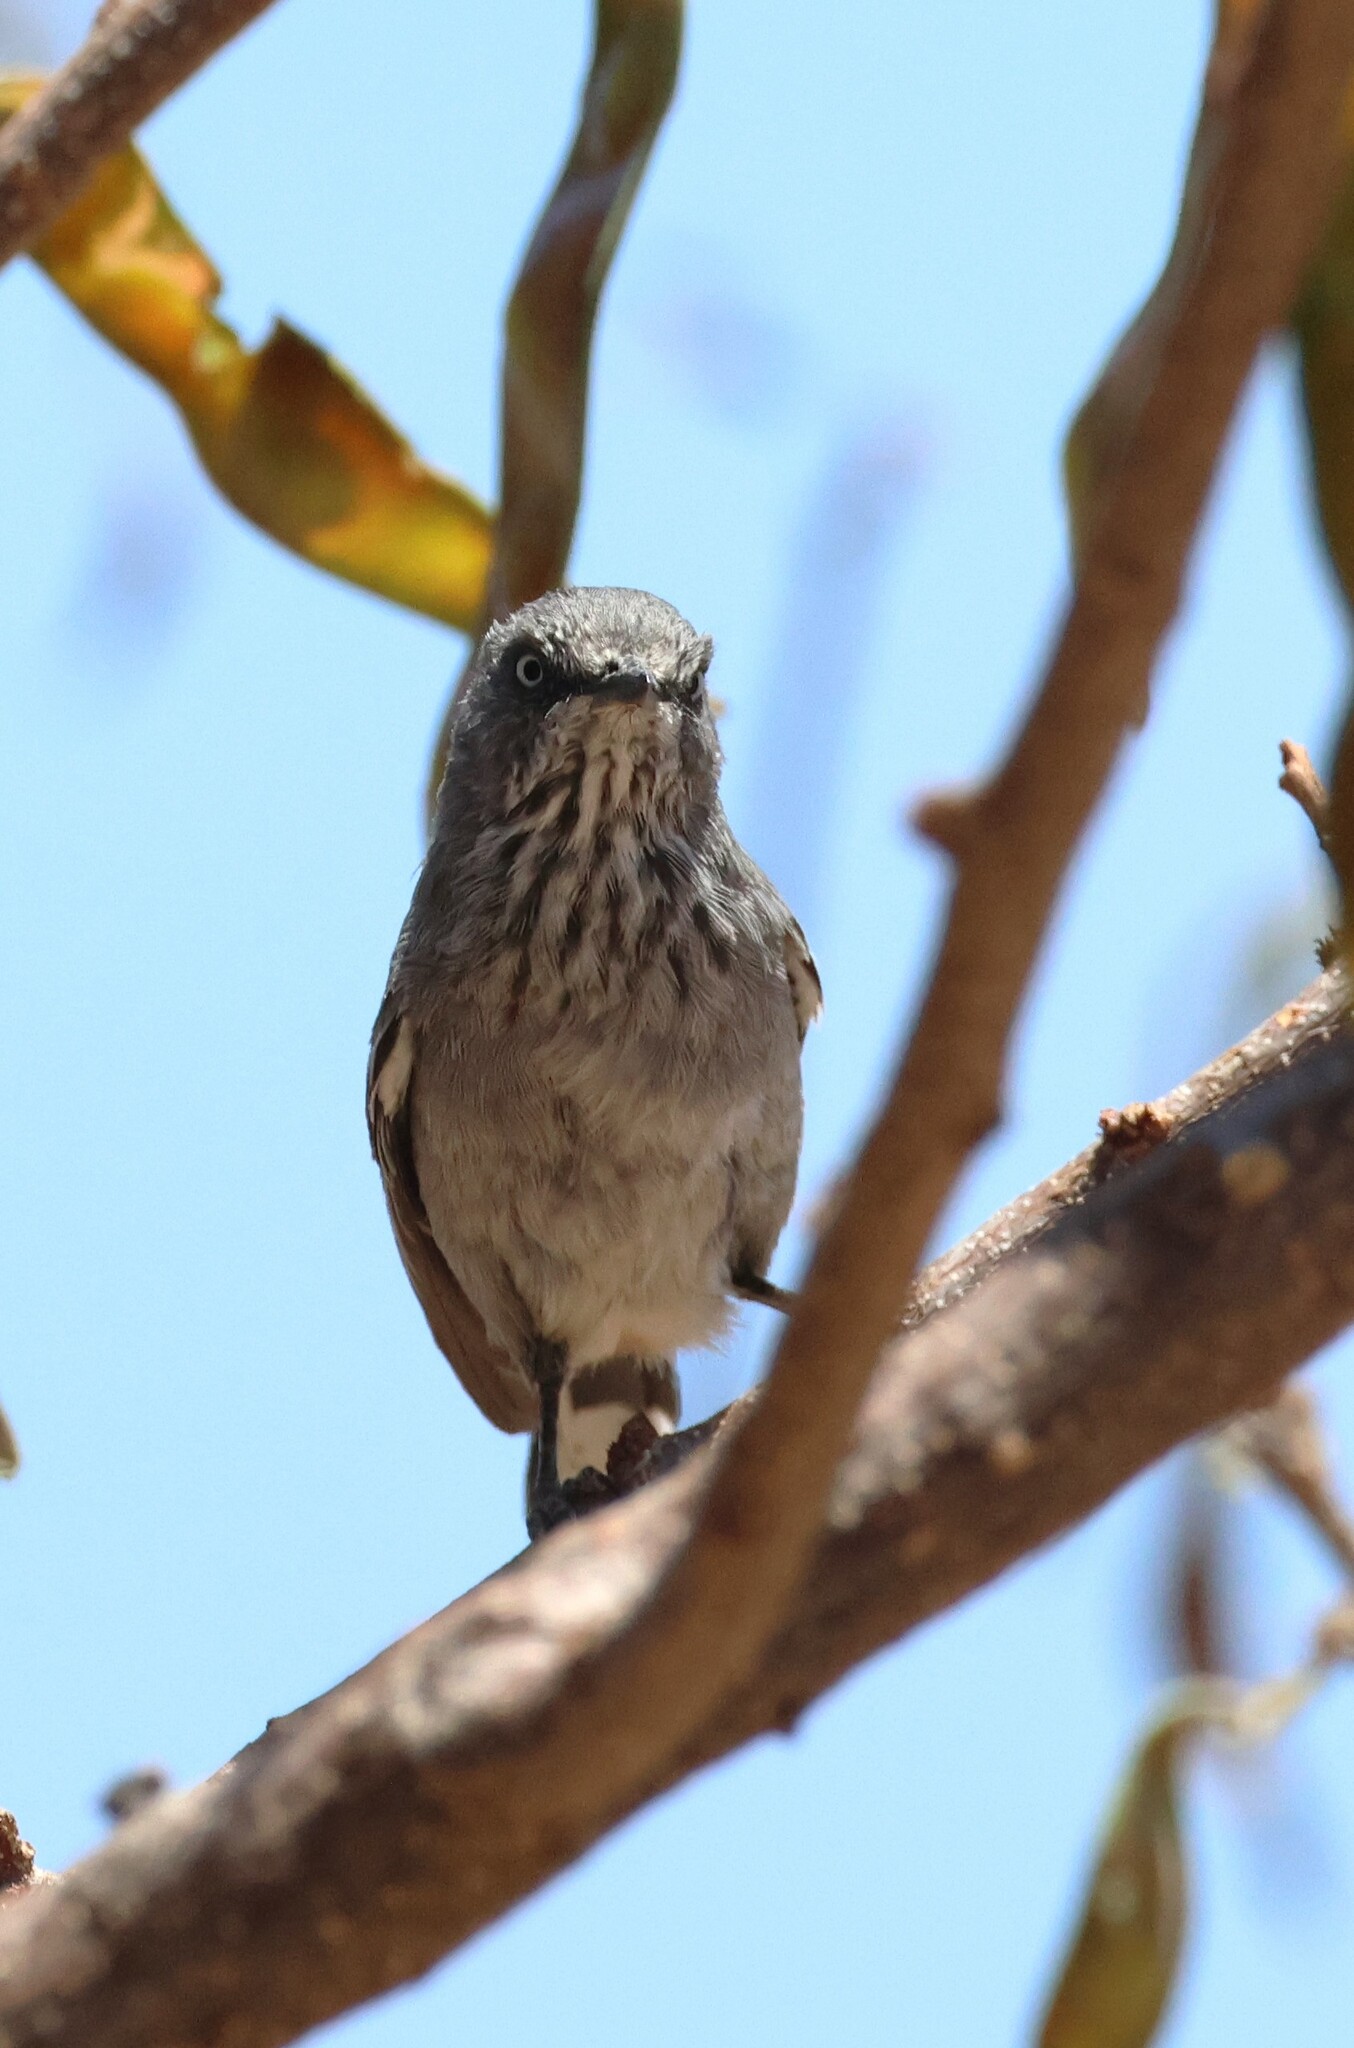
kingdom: Animalia
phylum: Chordata
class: Aves
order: Passeriformes
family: Sylviidae
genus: Curruca
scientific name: Curruca subcoerulea
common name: Chestnut-vented warbler
